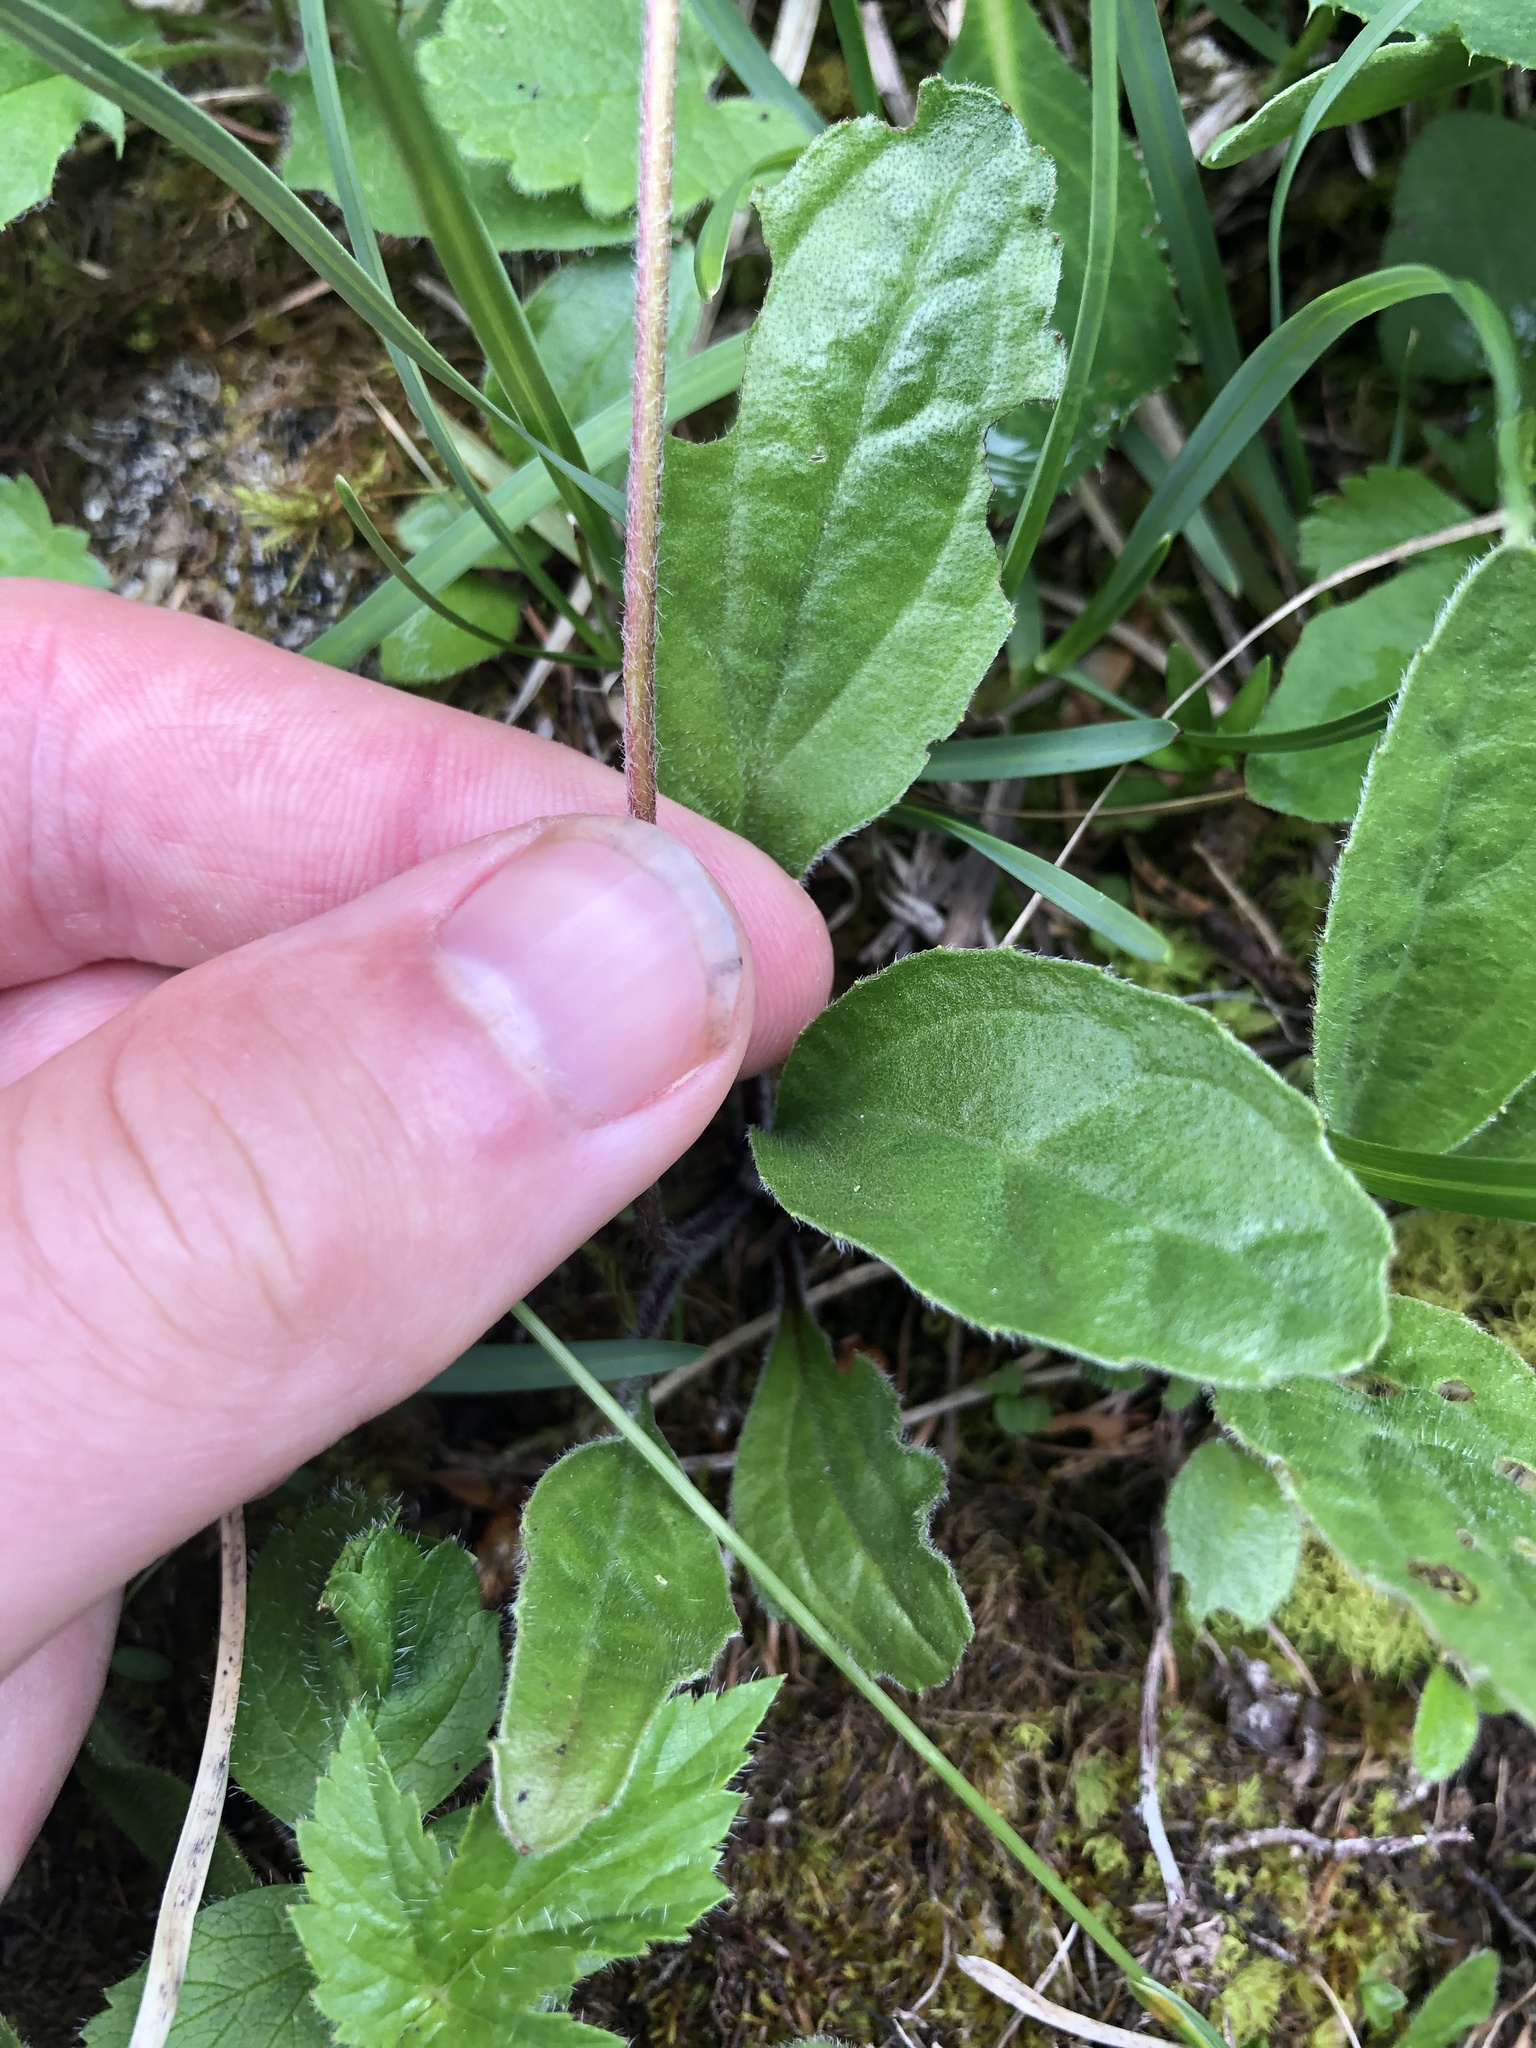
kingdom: Plantae
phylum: Tracheophyta
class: Magnoliopsida
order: Asterales
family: Asteraceae
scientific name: Asteraceae
